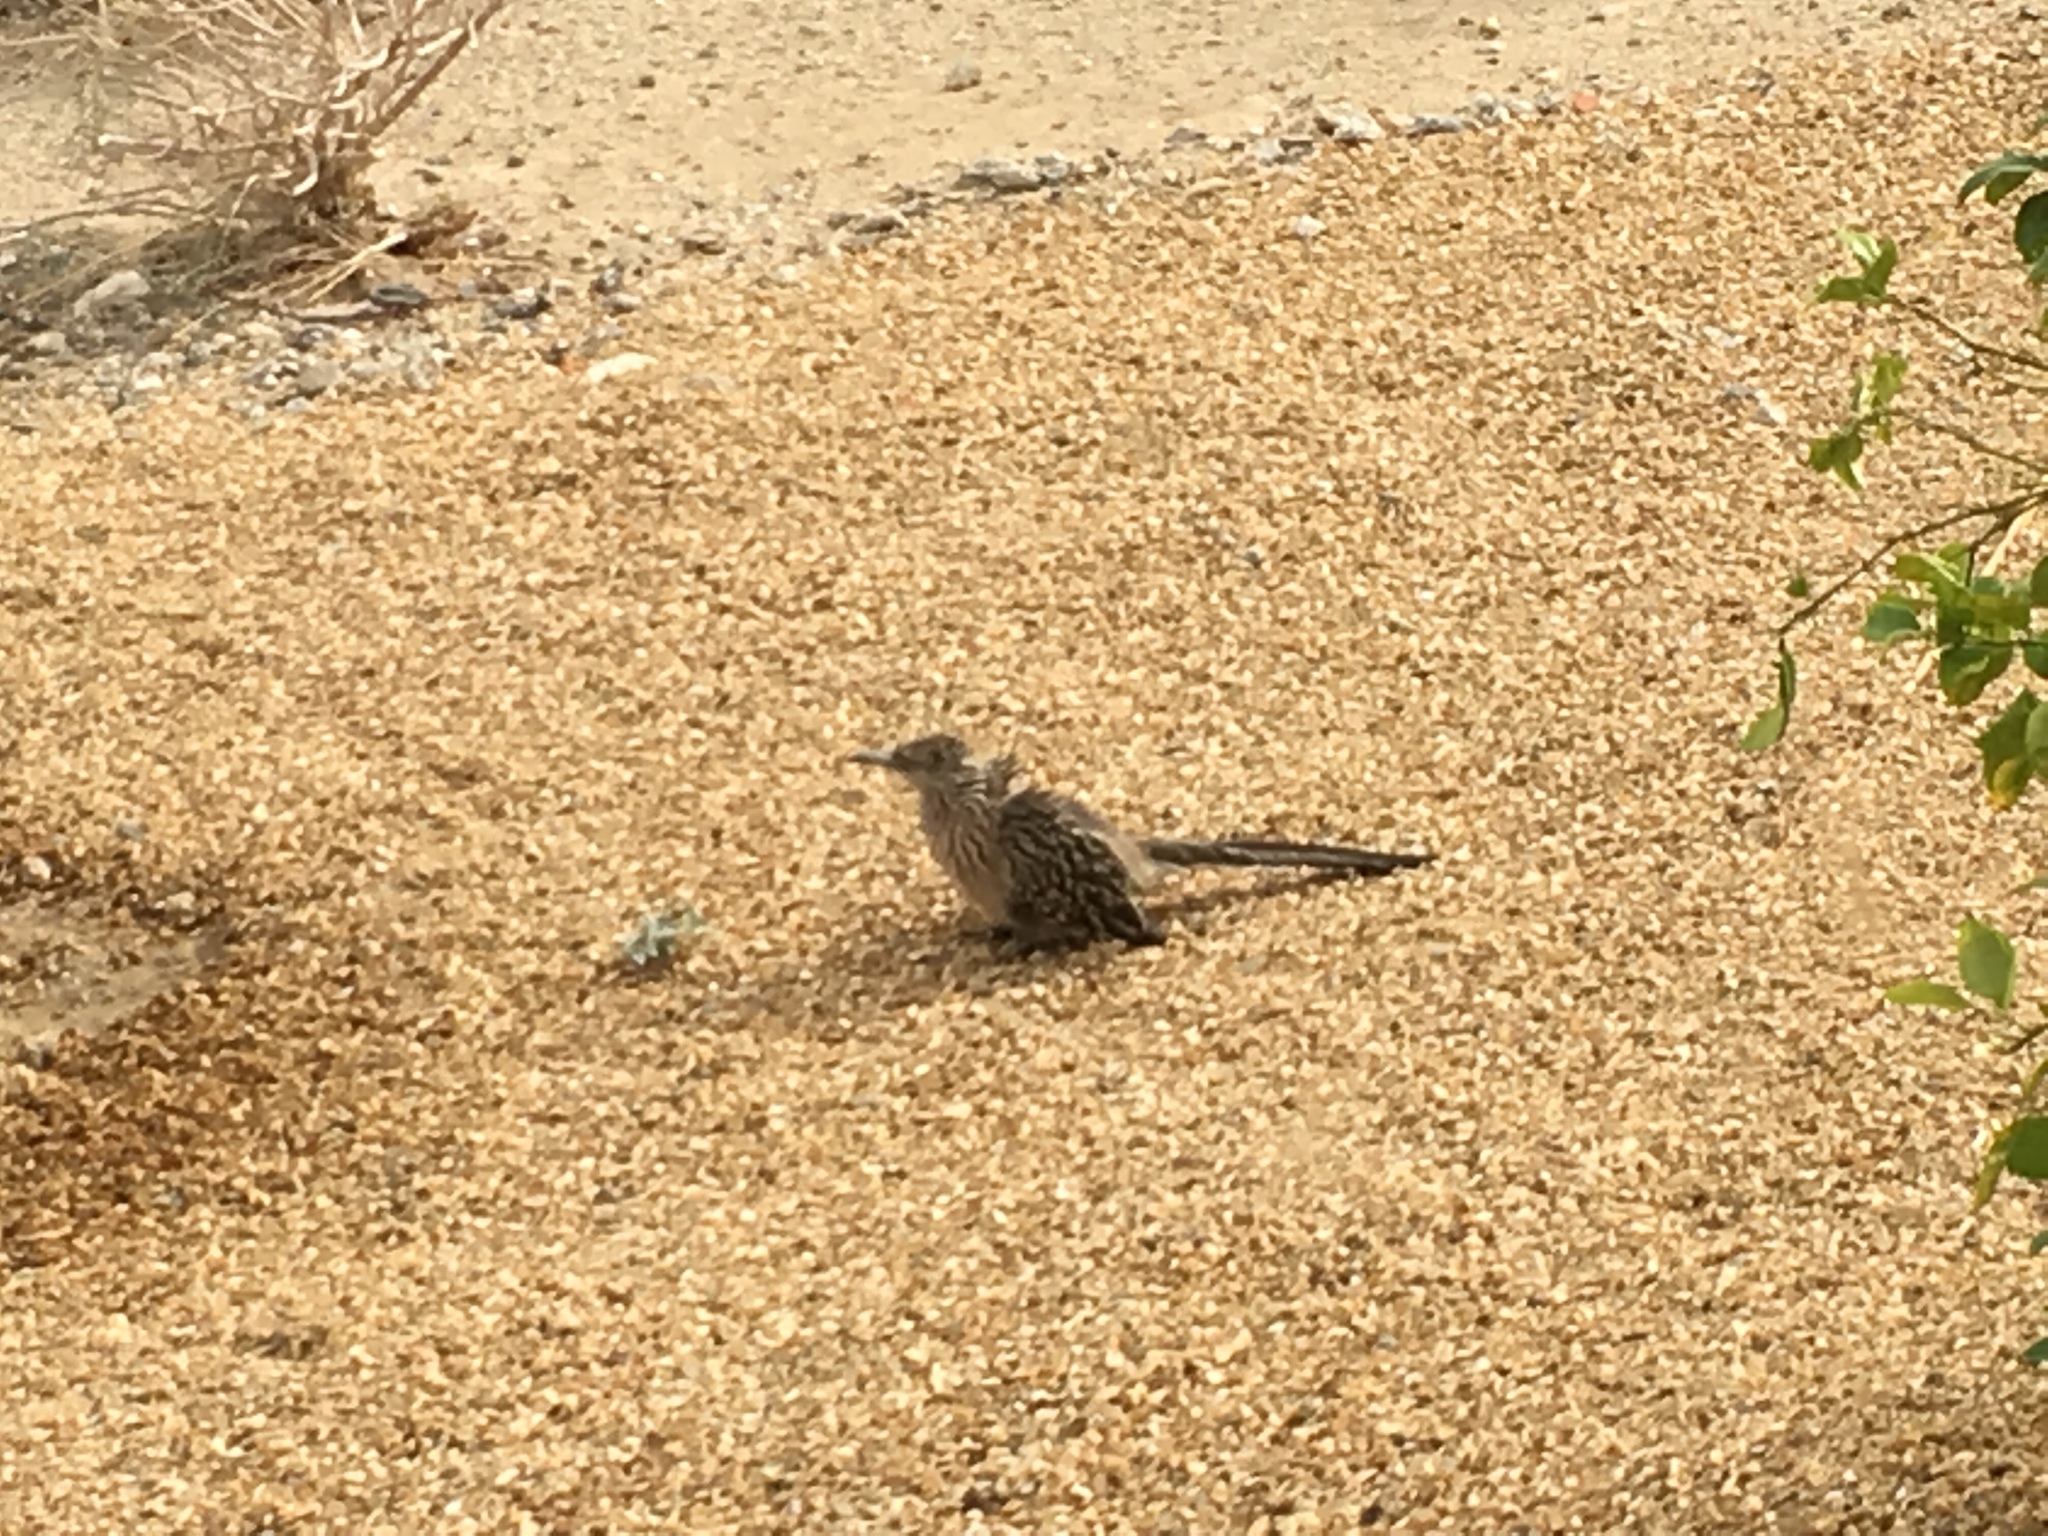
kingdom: Animalia
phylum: Chordata
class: Aves
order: Cuculiformes
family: Cuculidae
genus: Geococcyx
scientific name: Geococcyx californianus
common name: Greater roadrunner
